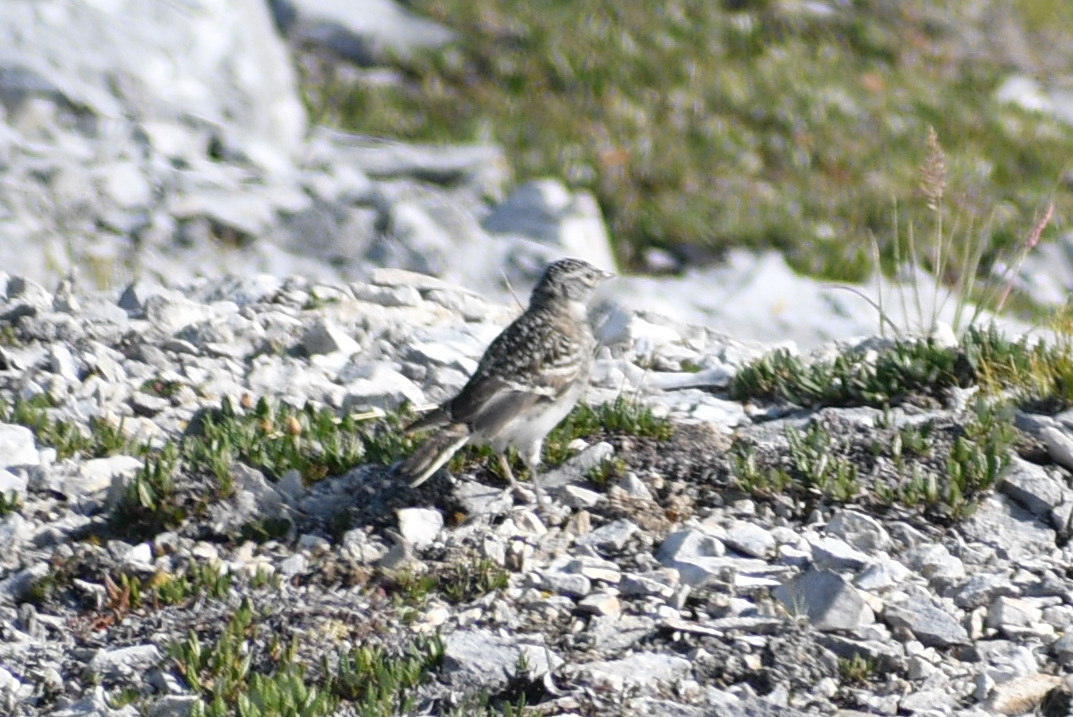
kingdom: Animalia
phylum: Chordata
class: Aves
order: Passeriformes
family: Alaudidae
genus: Eremophila
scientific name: Eremophila alpestris
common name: Horned lark
